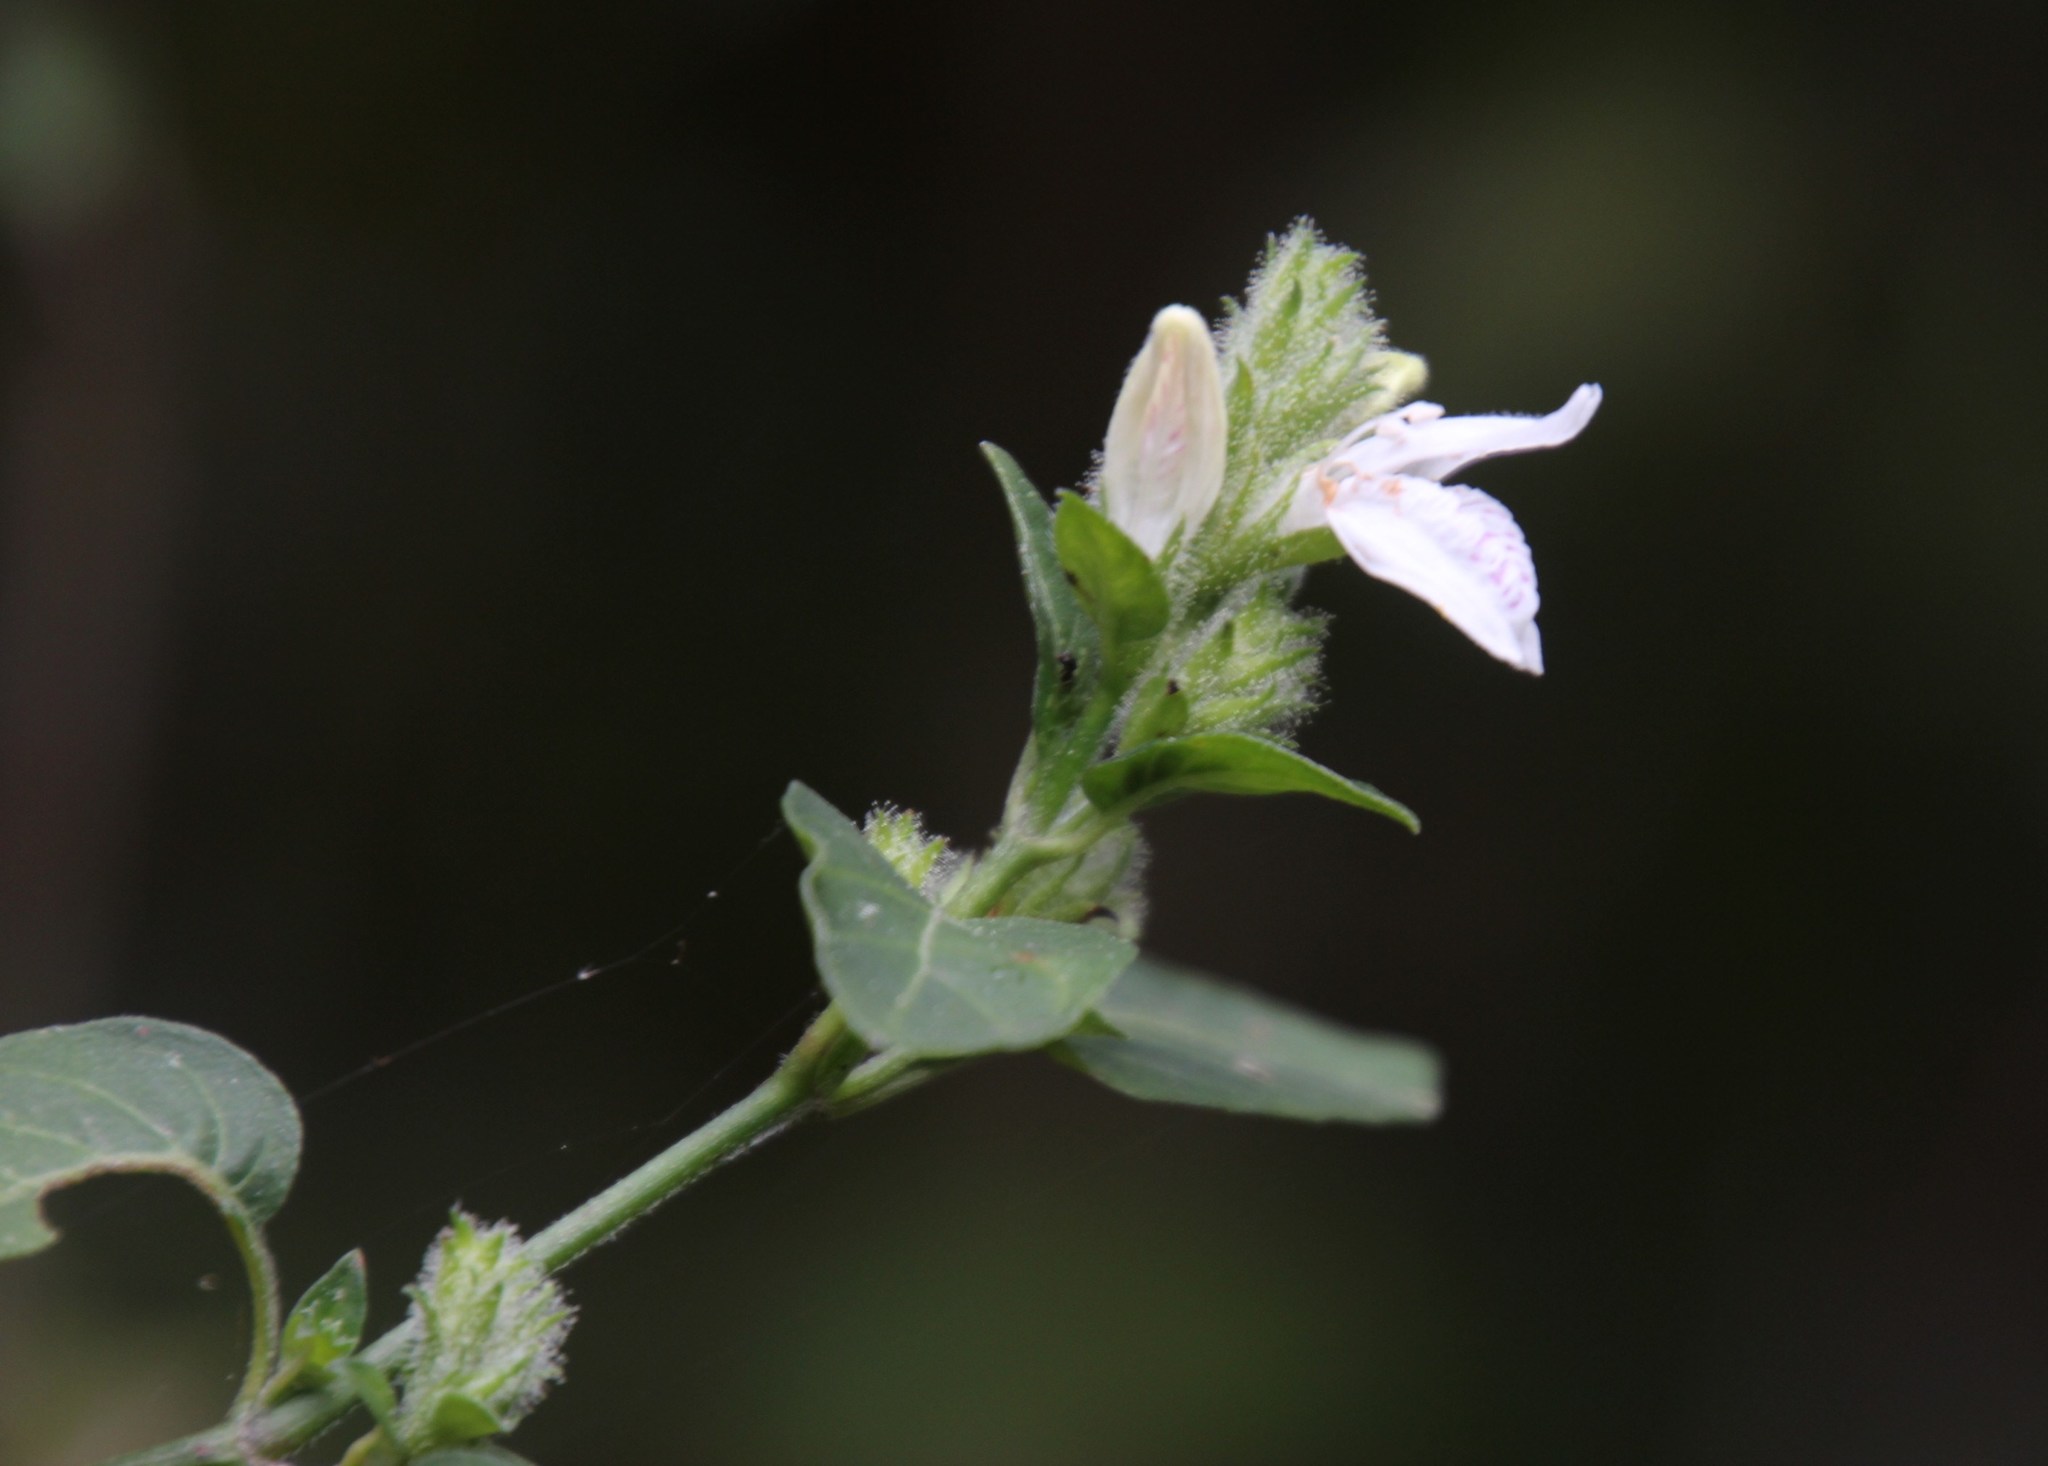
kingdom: Plantae
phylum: Tracheophyta
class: Magnoliopsida
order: Lamiales
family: Acanthaceae
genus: Hypoestes
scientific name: Hypoestes forskaolii
